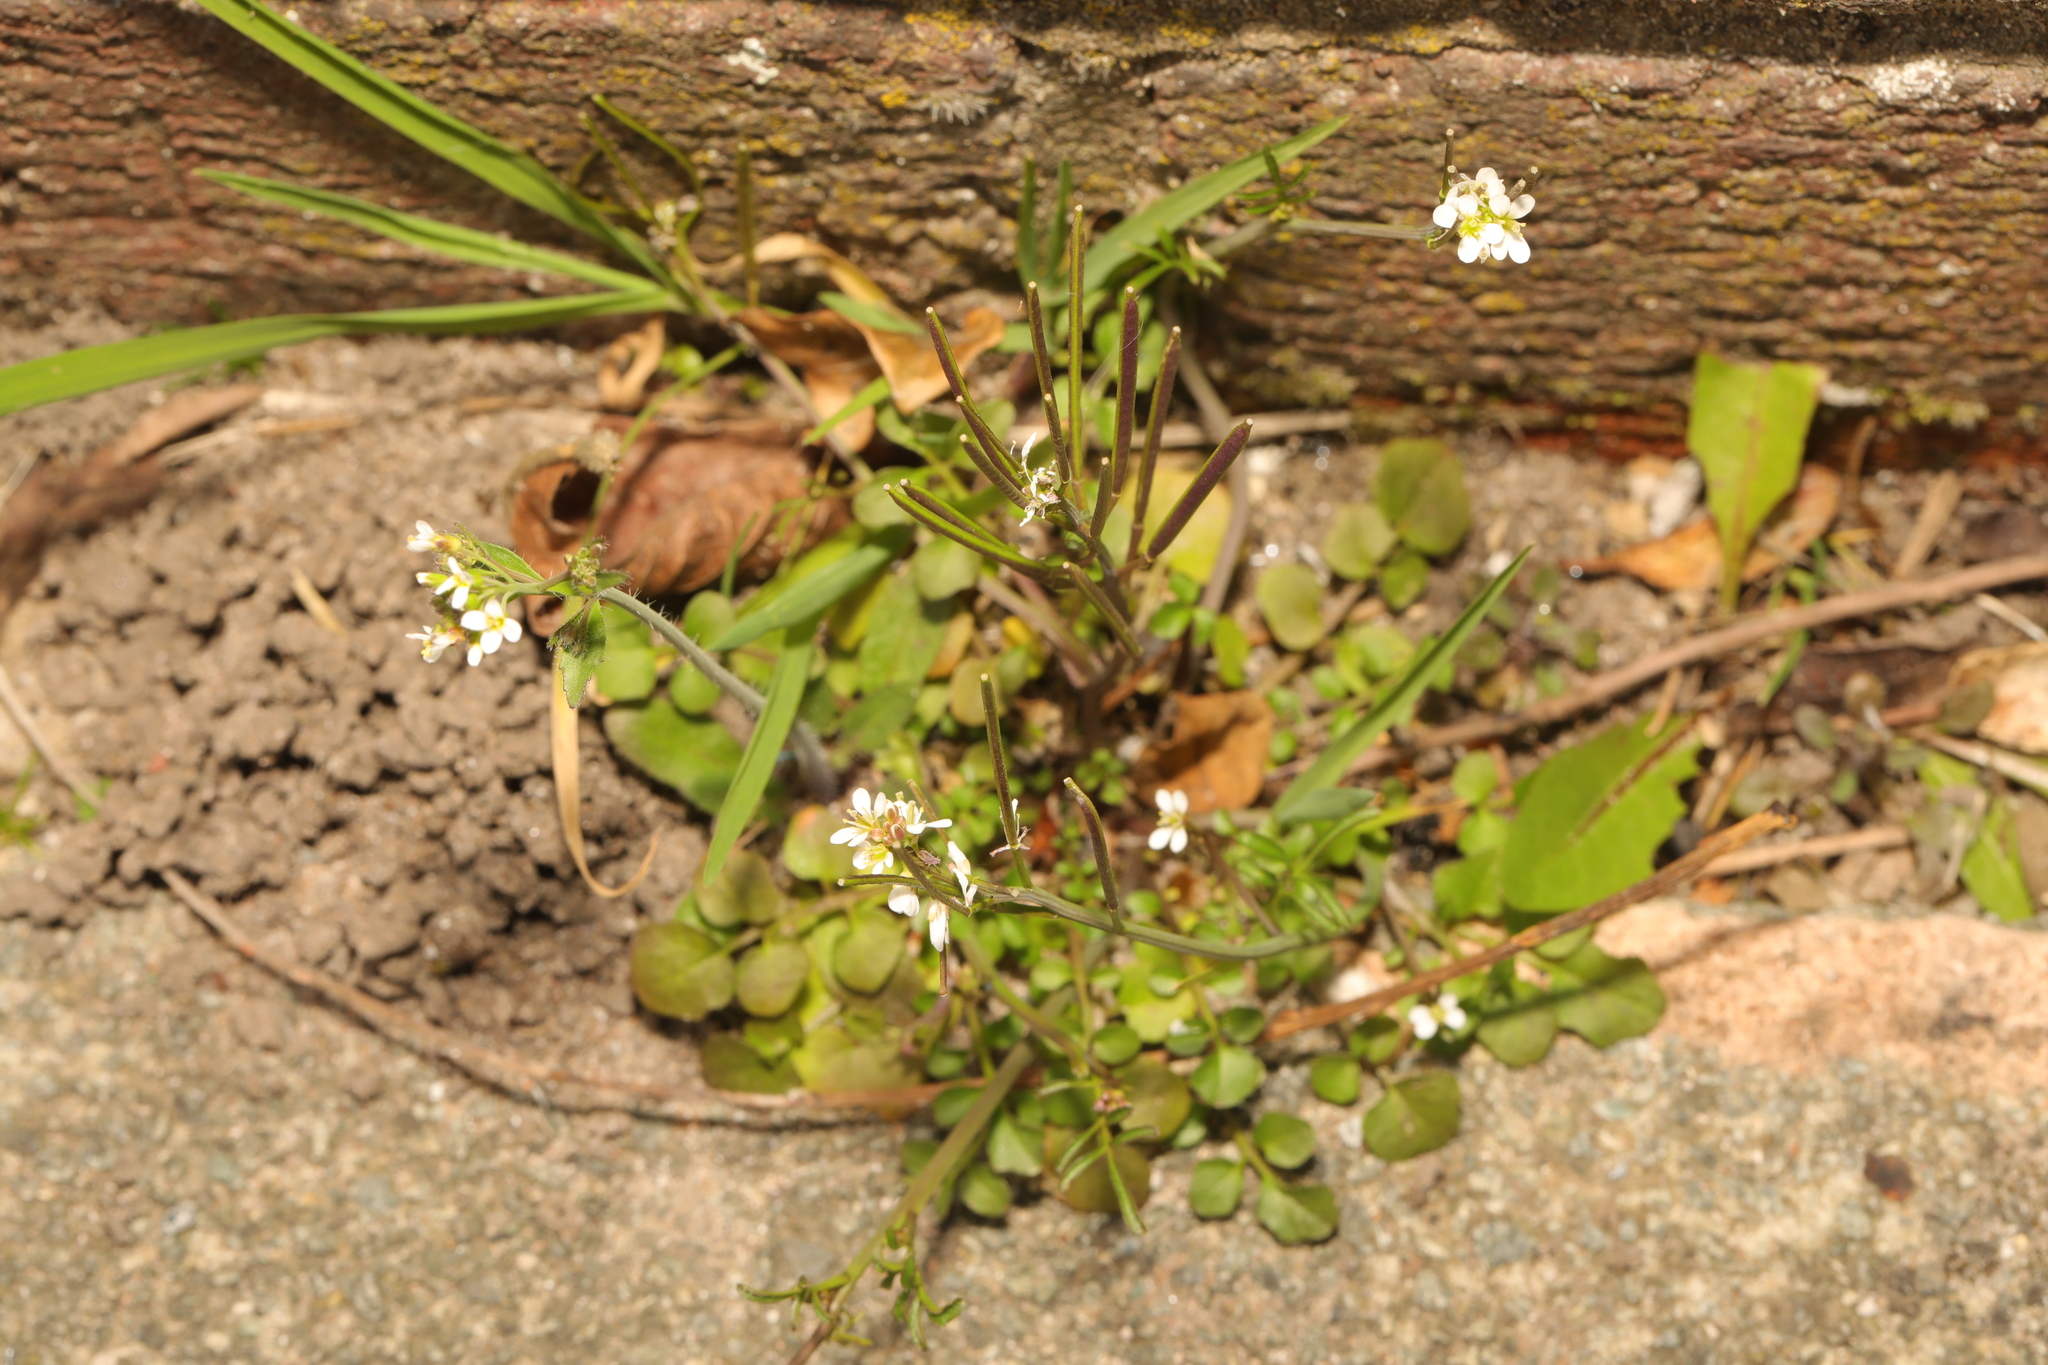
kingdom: Plantae
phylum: Tracheophyta
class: Magnoliopsida
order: Brassicales
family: Brassicaceae
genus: Cardamine
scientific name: Cardamine hirsuta
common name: Hairy bittercress
